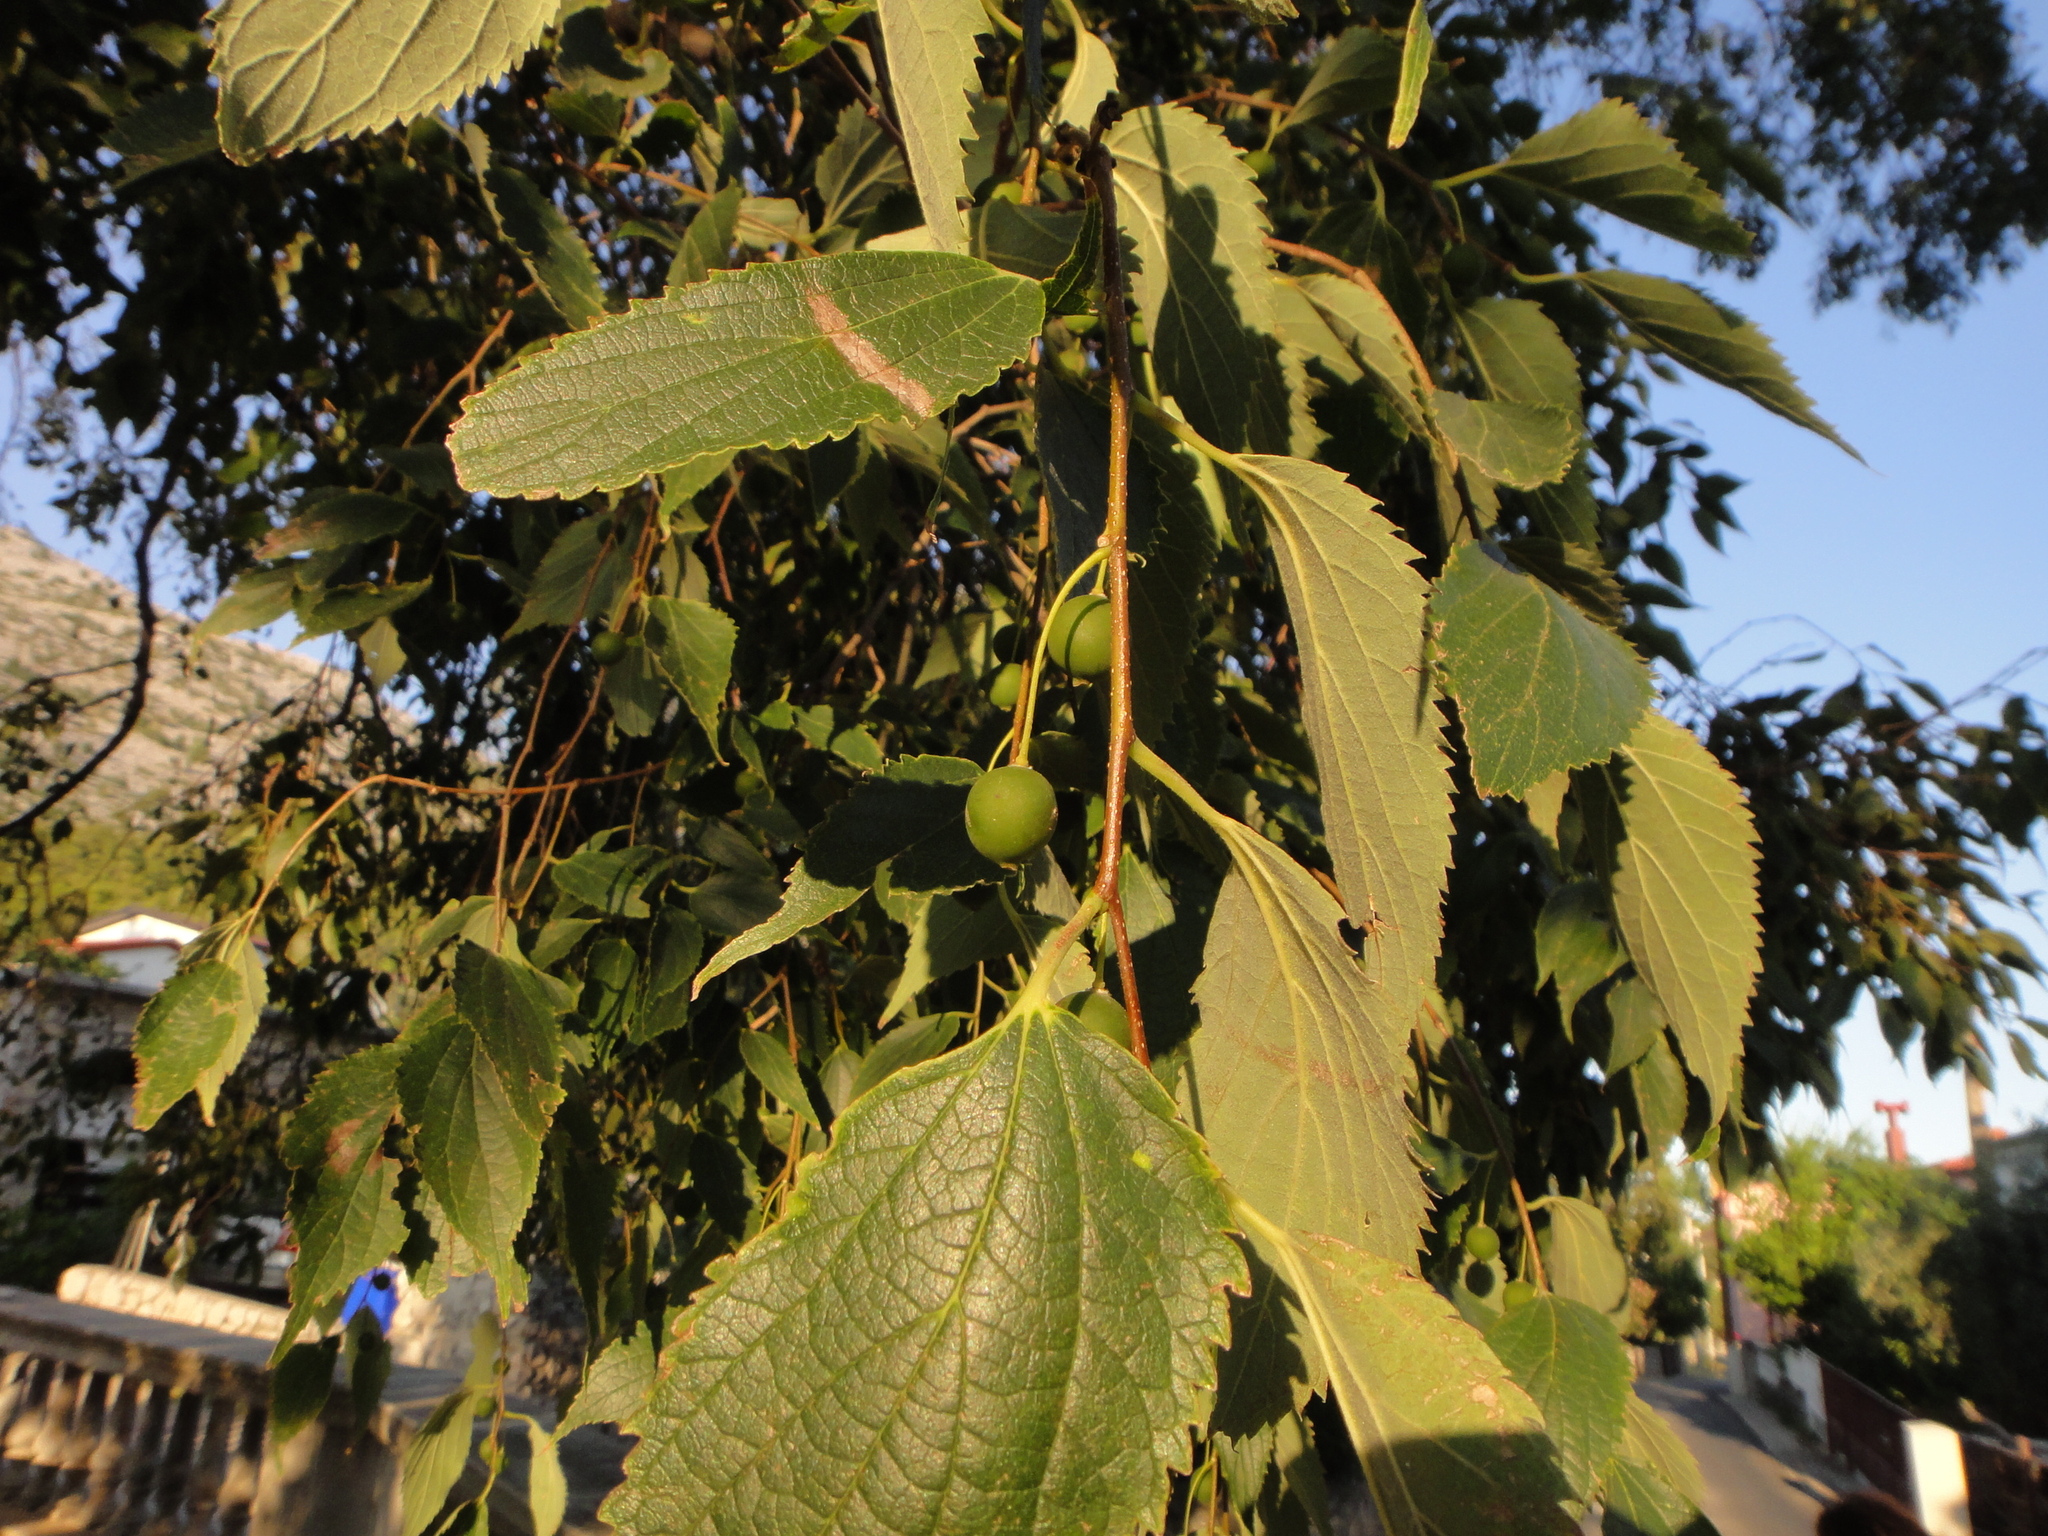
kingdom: Plantae
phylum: Tracheophyta
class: Magnoliopsida
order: Rosales
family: Cannabaceae
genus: Celtis
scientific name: Celtis australis
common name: European hackberry
